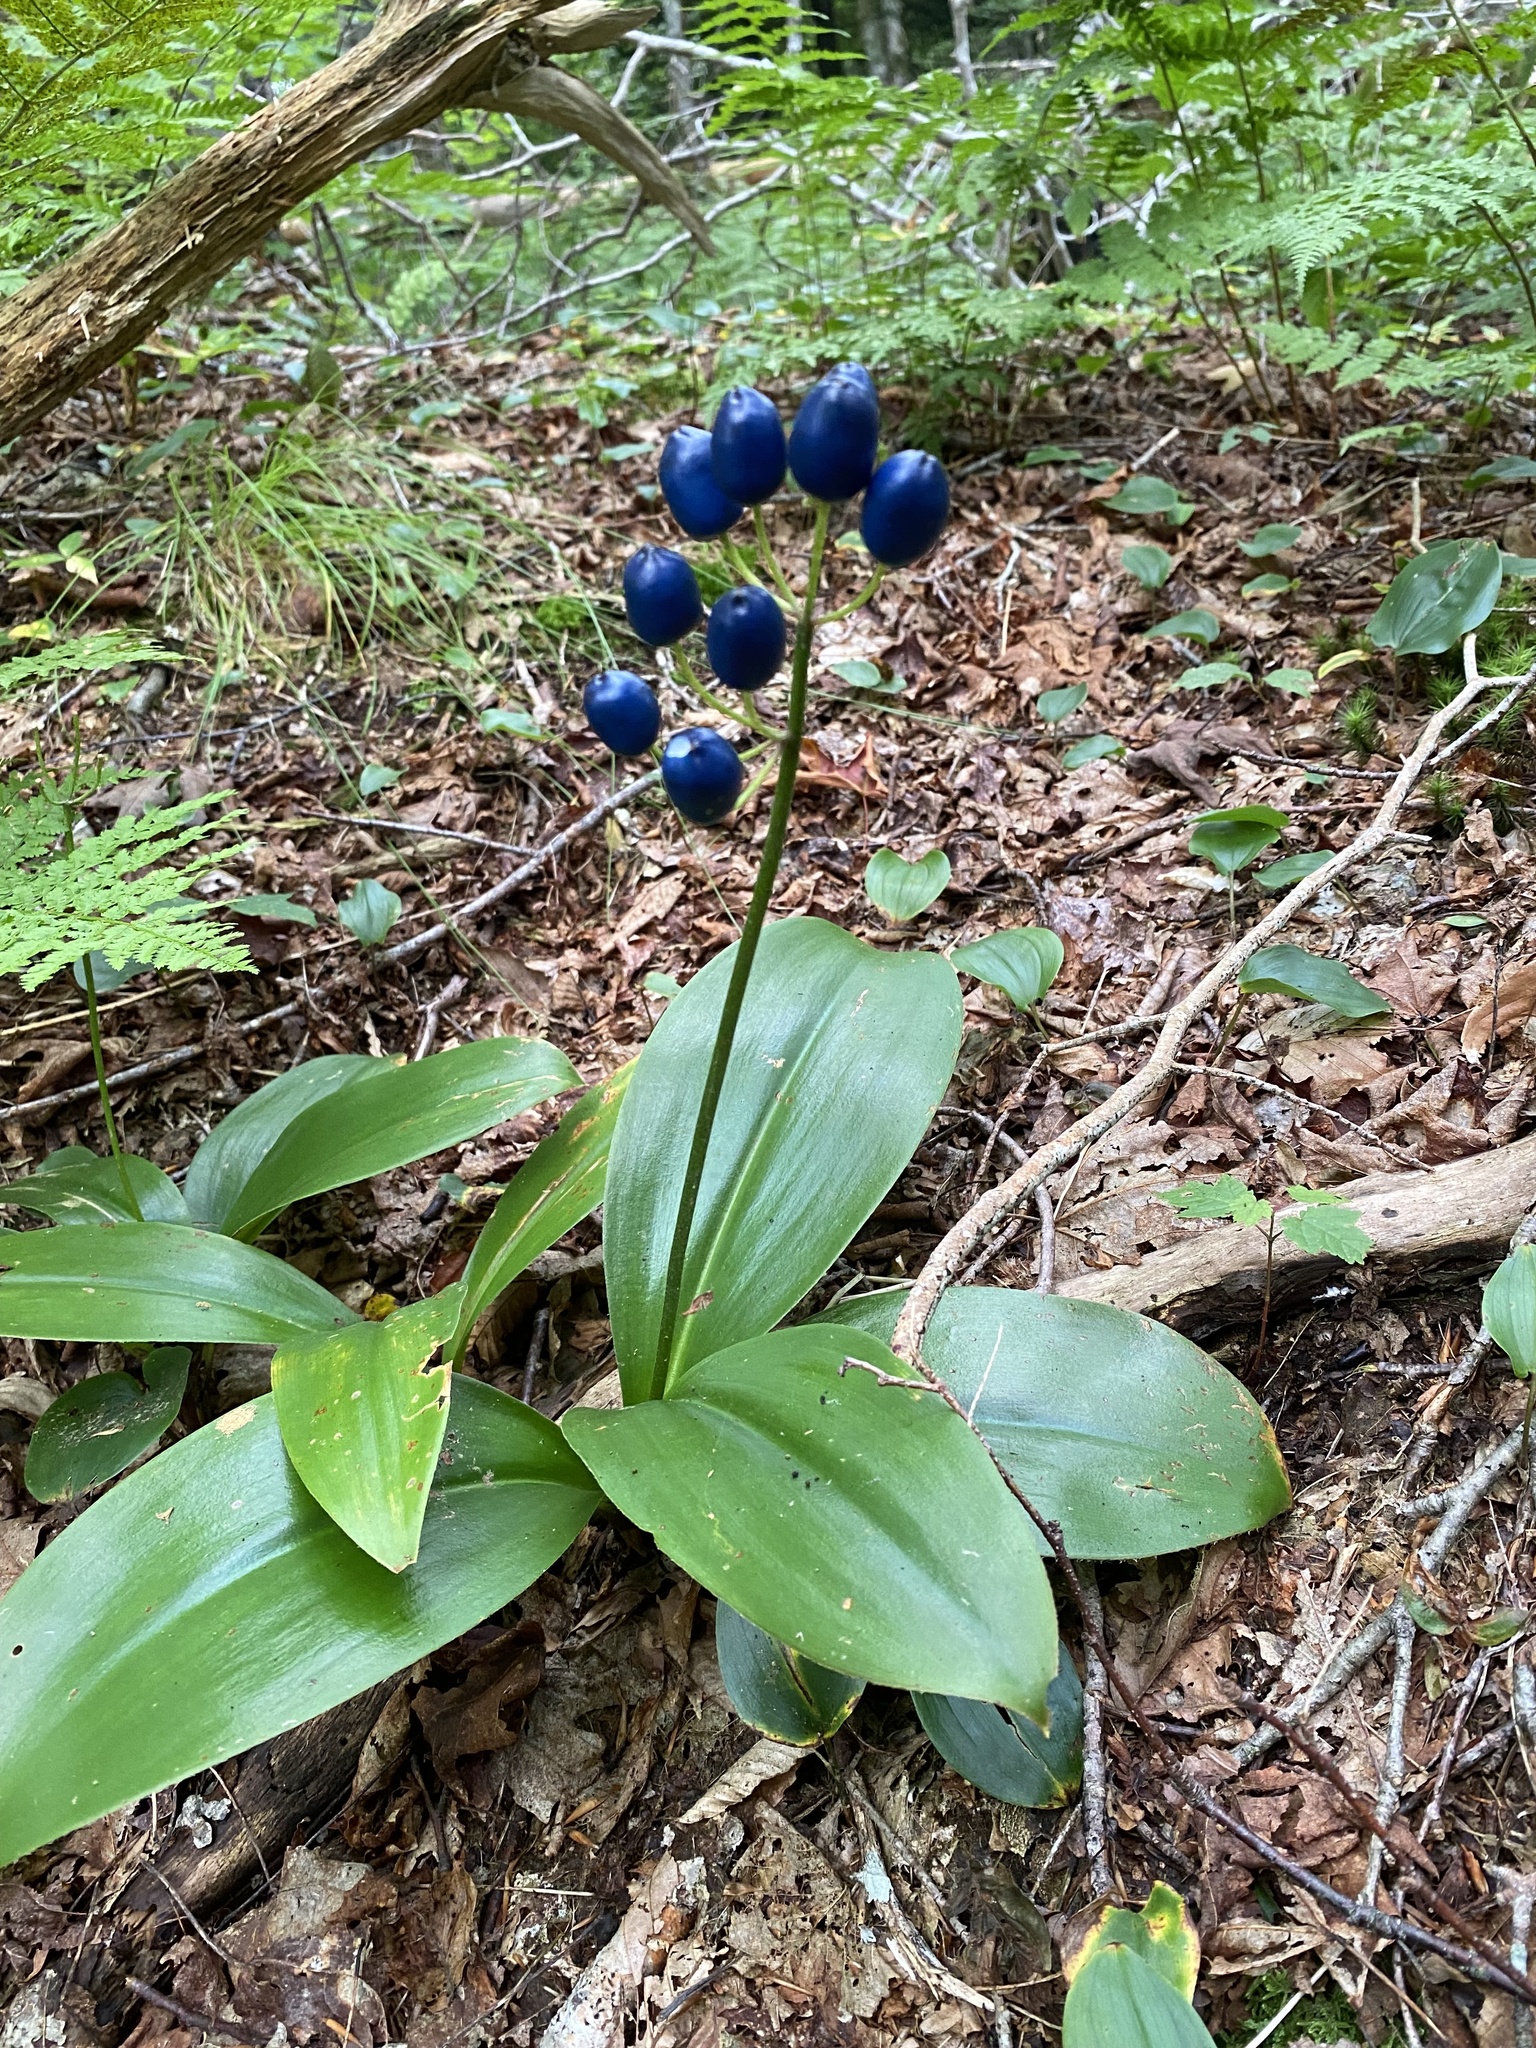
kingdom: Plantae
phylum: Tracheophyta
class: Liliopsida
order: Liliales
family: Liliaceae
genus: Clintonia
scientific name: Clintonia borealis
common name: Yellow clintonia
